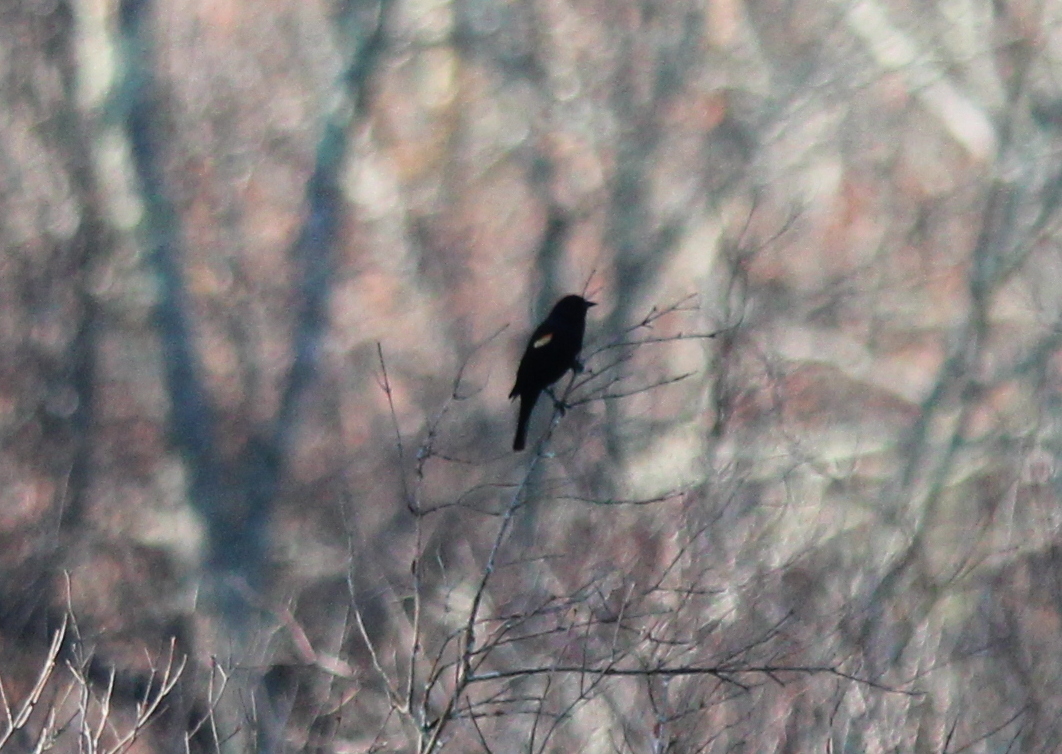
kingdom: Animalia
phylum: Chordata
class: Aves
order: Passeriformes
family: Icteridae
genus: Agelaius
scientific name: Agelaius phoeniceus
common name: Red-winged blackbird
